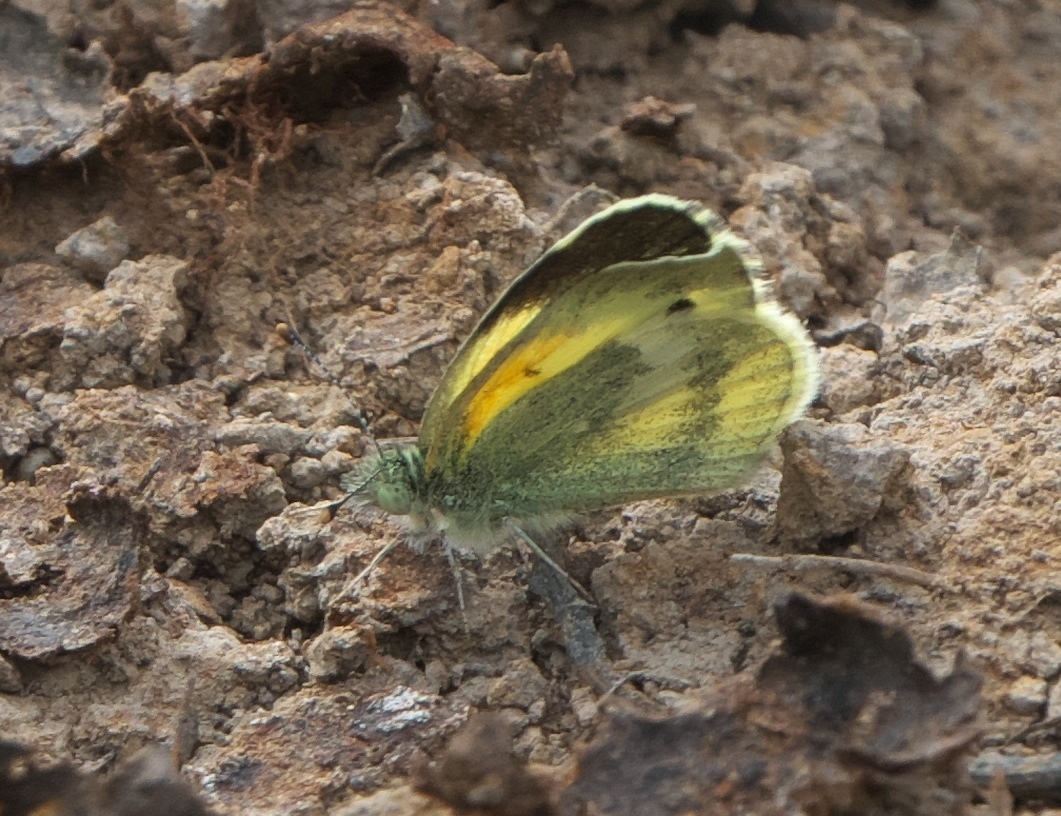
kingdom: Animalia
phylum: Arthropoda
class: Insecta
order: Lepidoptera
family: Pieridae
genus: Nathalis
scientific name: Nathalis iole
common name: Dainty sulphur
